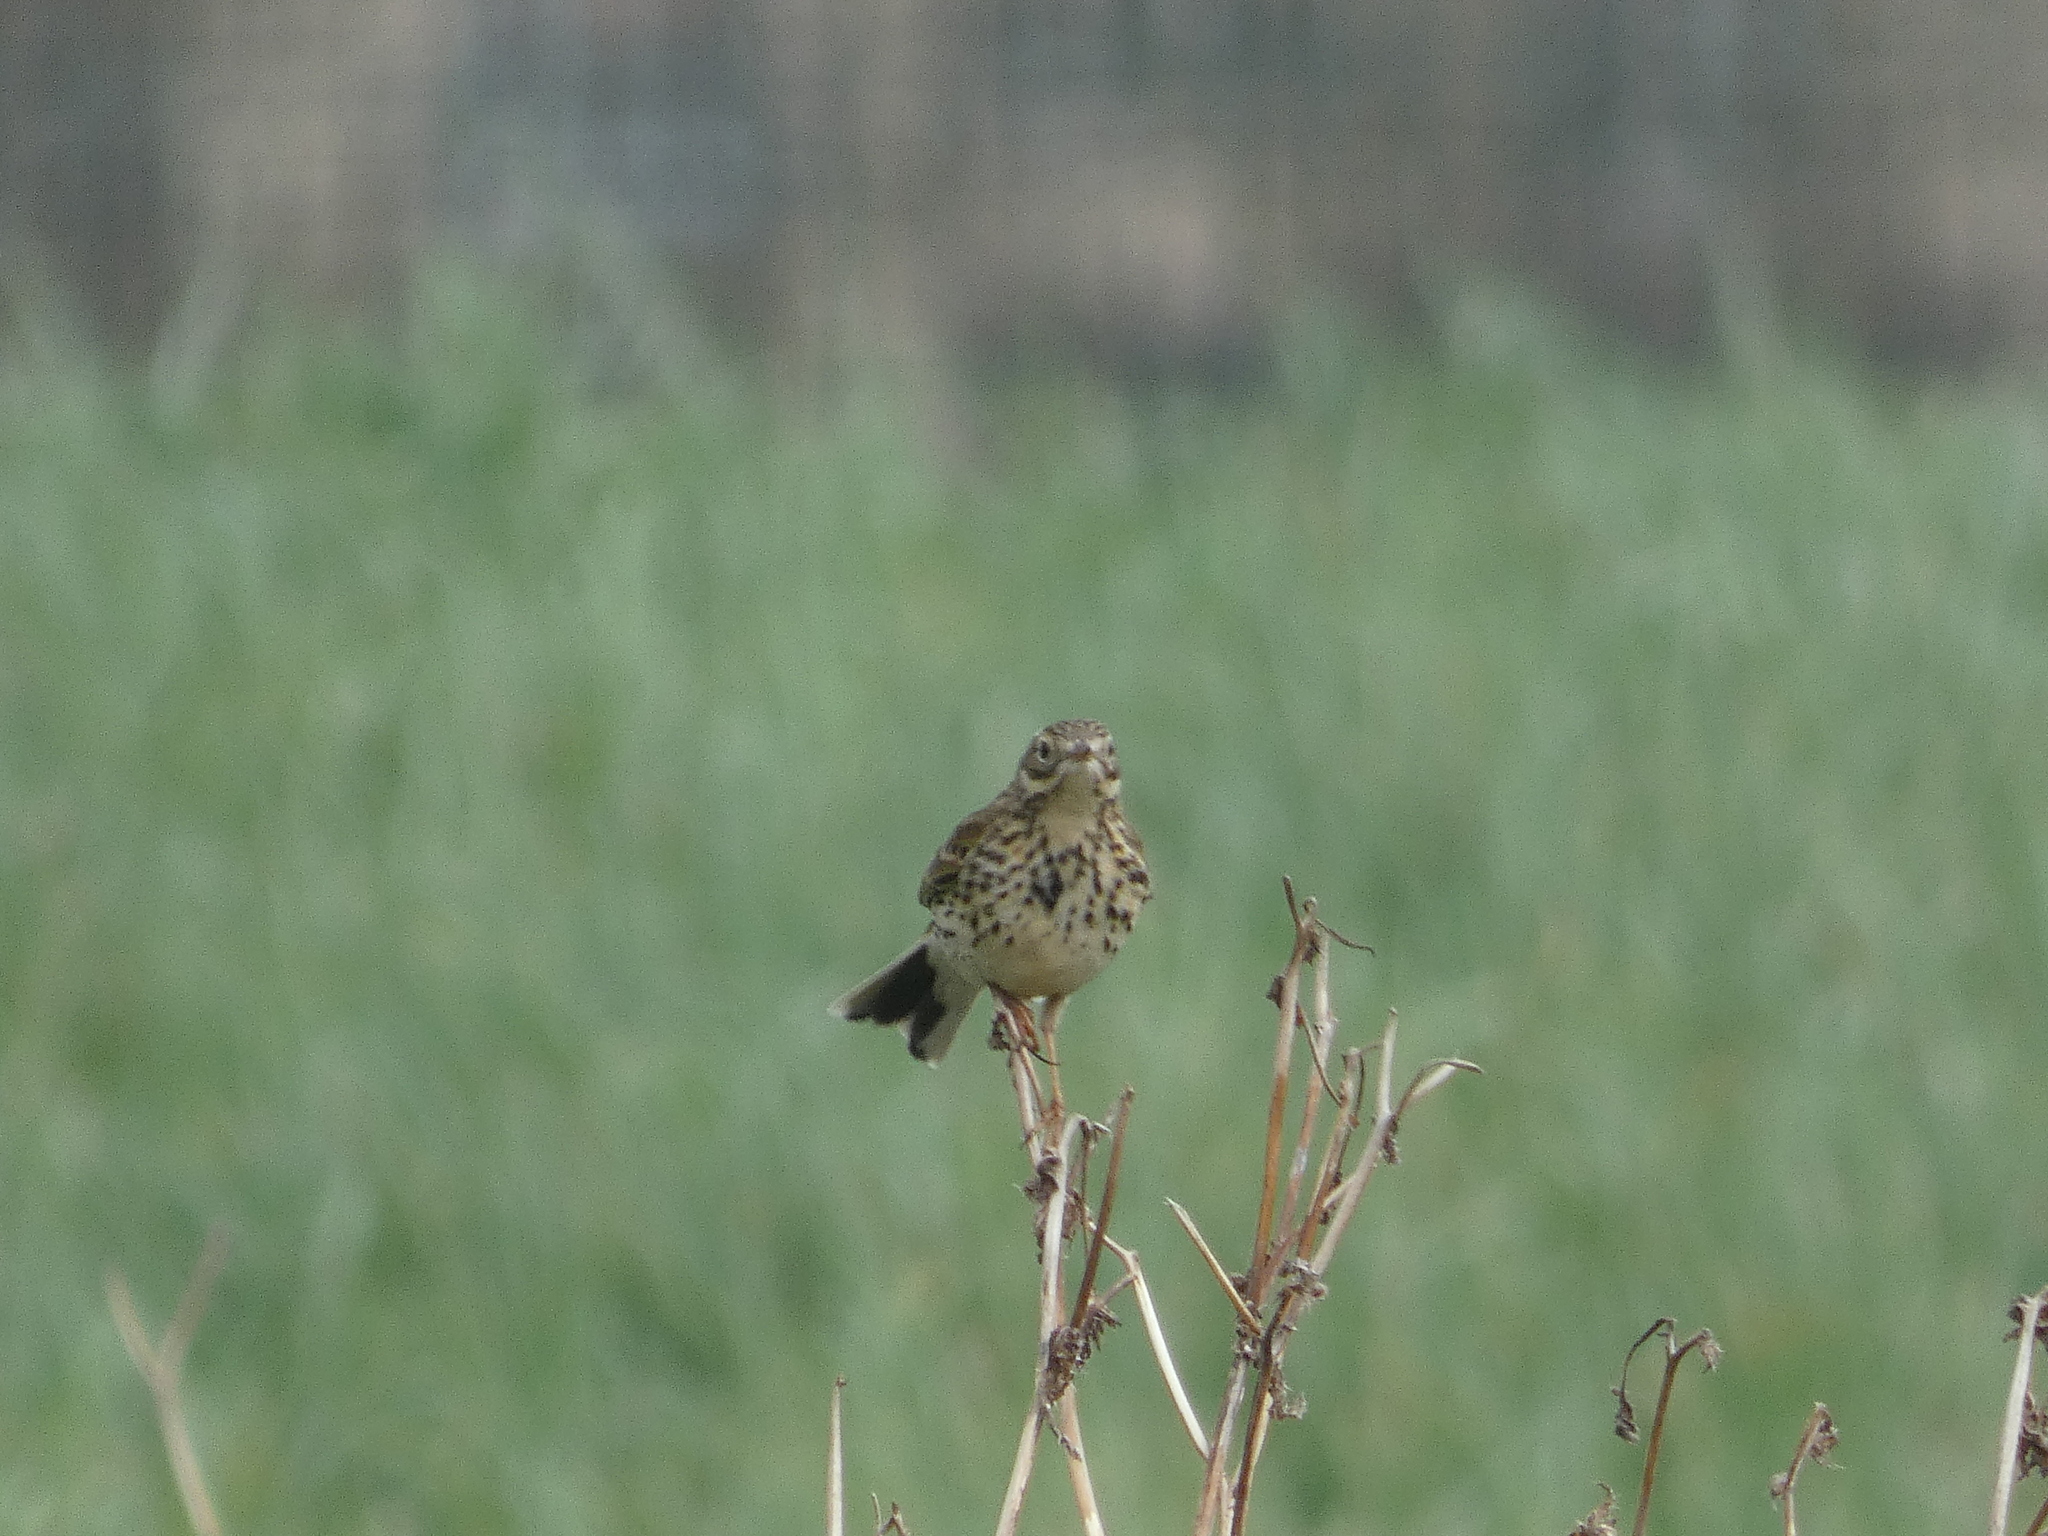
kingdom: Animalia
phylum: Chordata
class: Aves
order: Passeriformes
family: Motacillidae
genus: Anthus
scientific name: Anthus pratensis
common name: Meadow pipit
